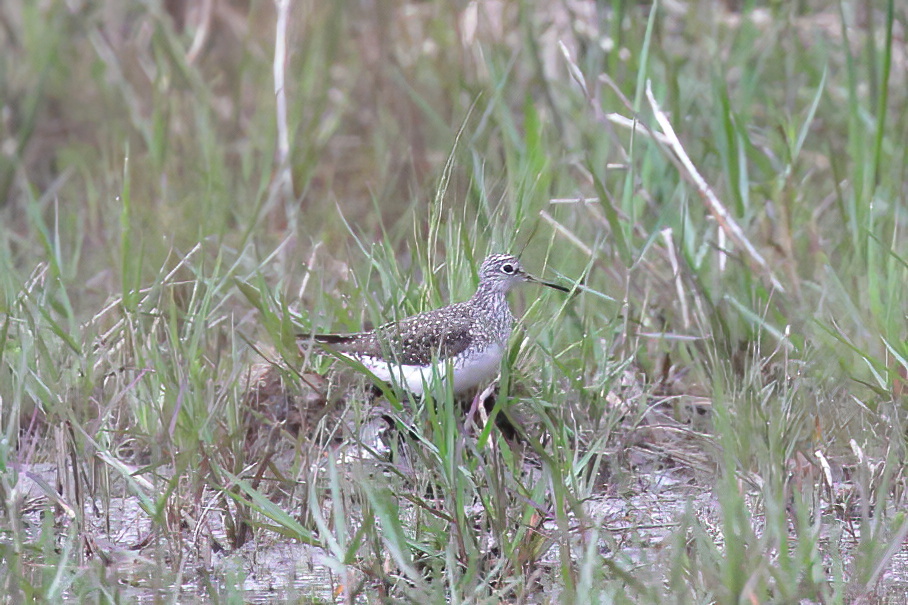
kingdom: Animalia
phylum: Chordata
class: Aves
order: Charadriiformes
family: Scolopacidae
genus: Tringa
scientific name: Tringa solitaria
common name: Solitary sandpiper
